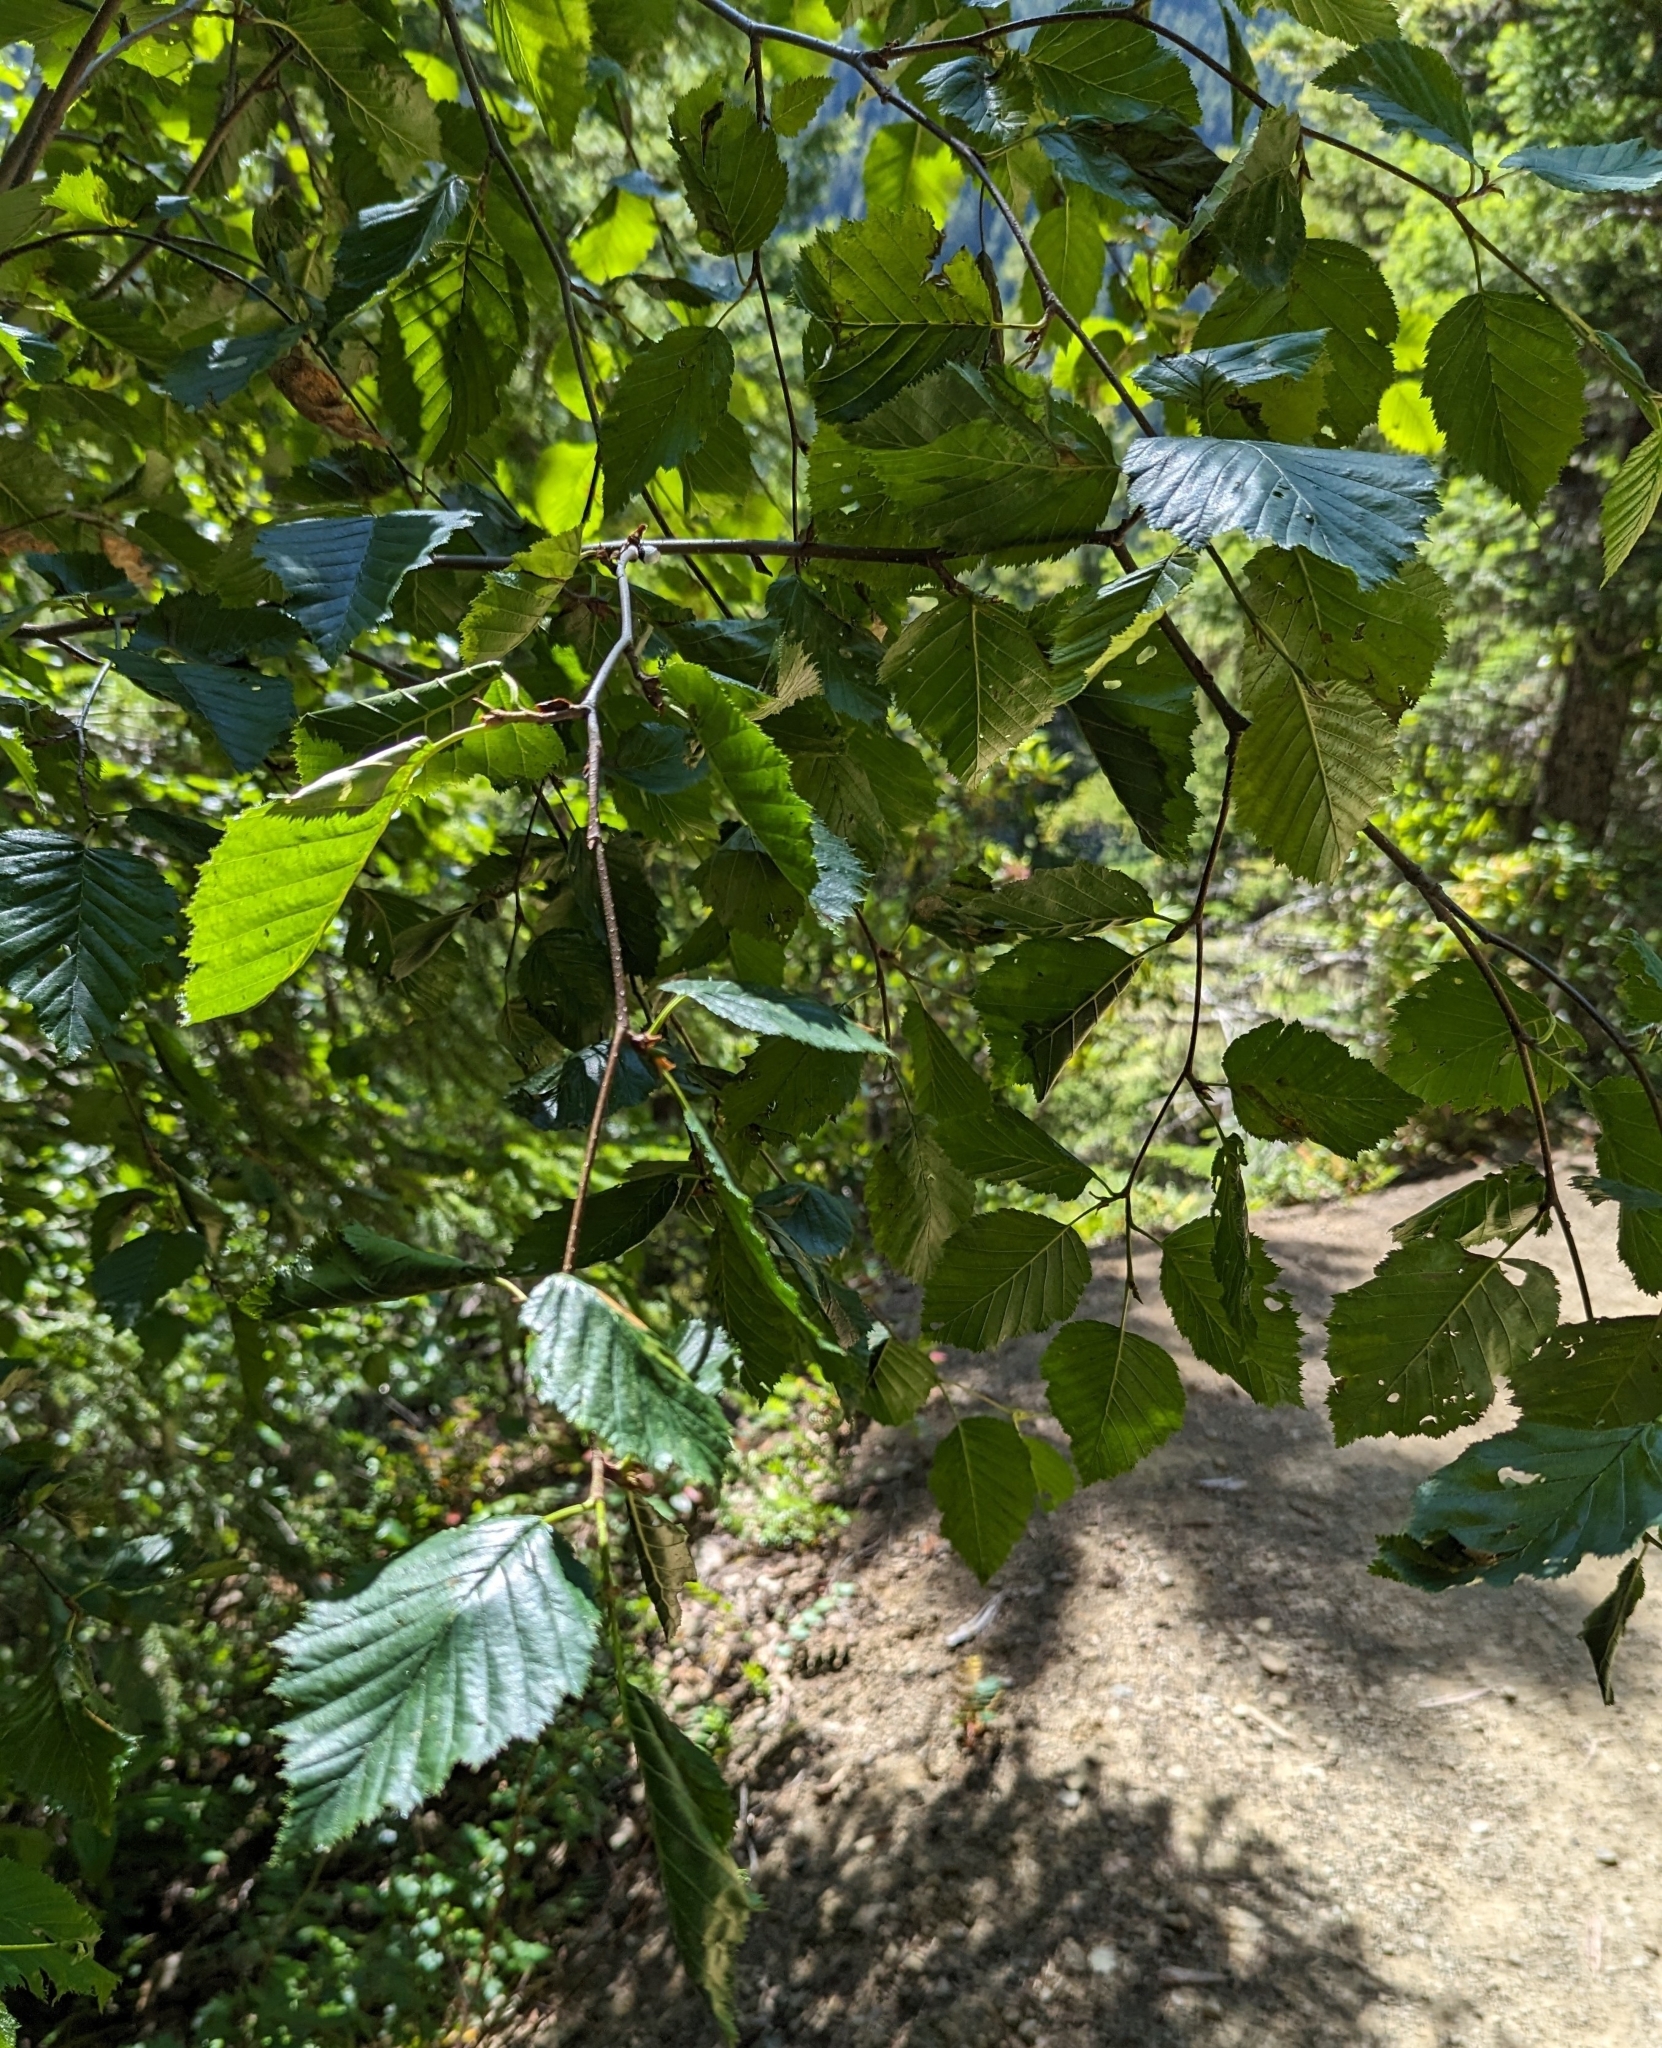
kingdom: Plantae
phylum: Tracheophyta
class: Magnoliopsida
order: Fagales
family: Betulaceae
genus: Alnus
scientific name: Alnus alnobetula
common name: Green alder
